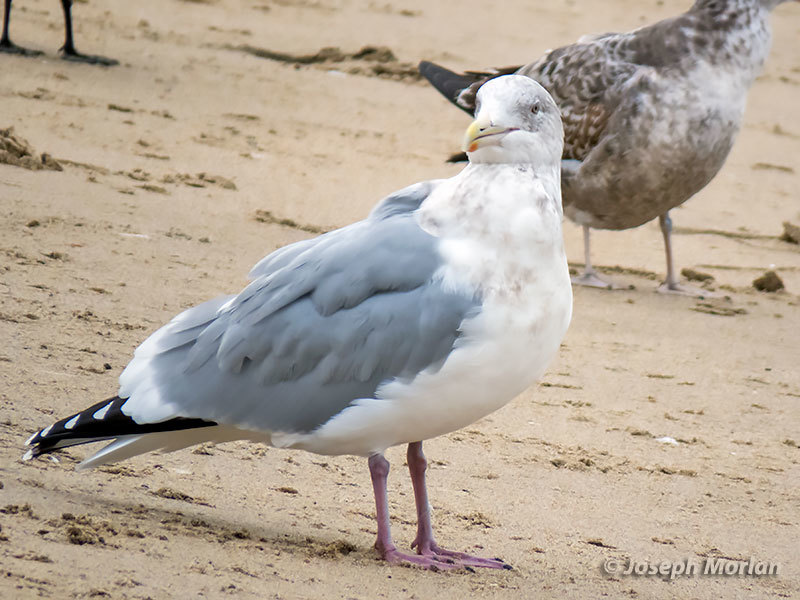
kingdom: Animalia
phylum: Chordata
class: Aves
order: Charadriiformes
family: Laridae
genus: Larus
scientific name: Larus argentatus
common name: Herring gull
